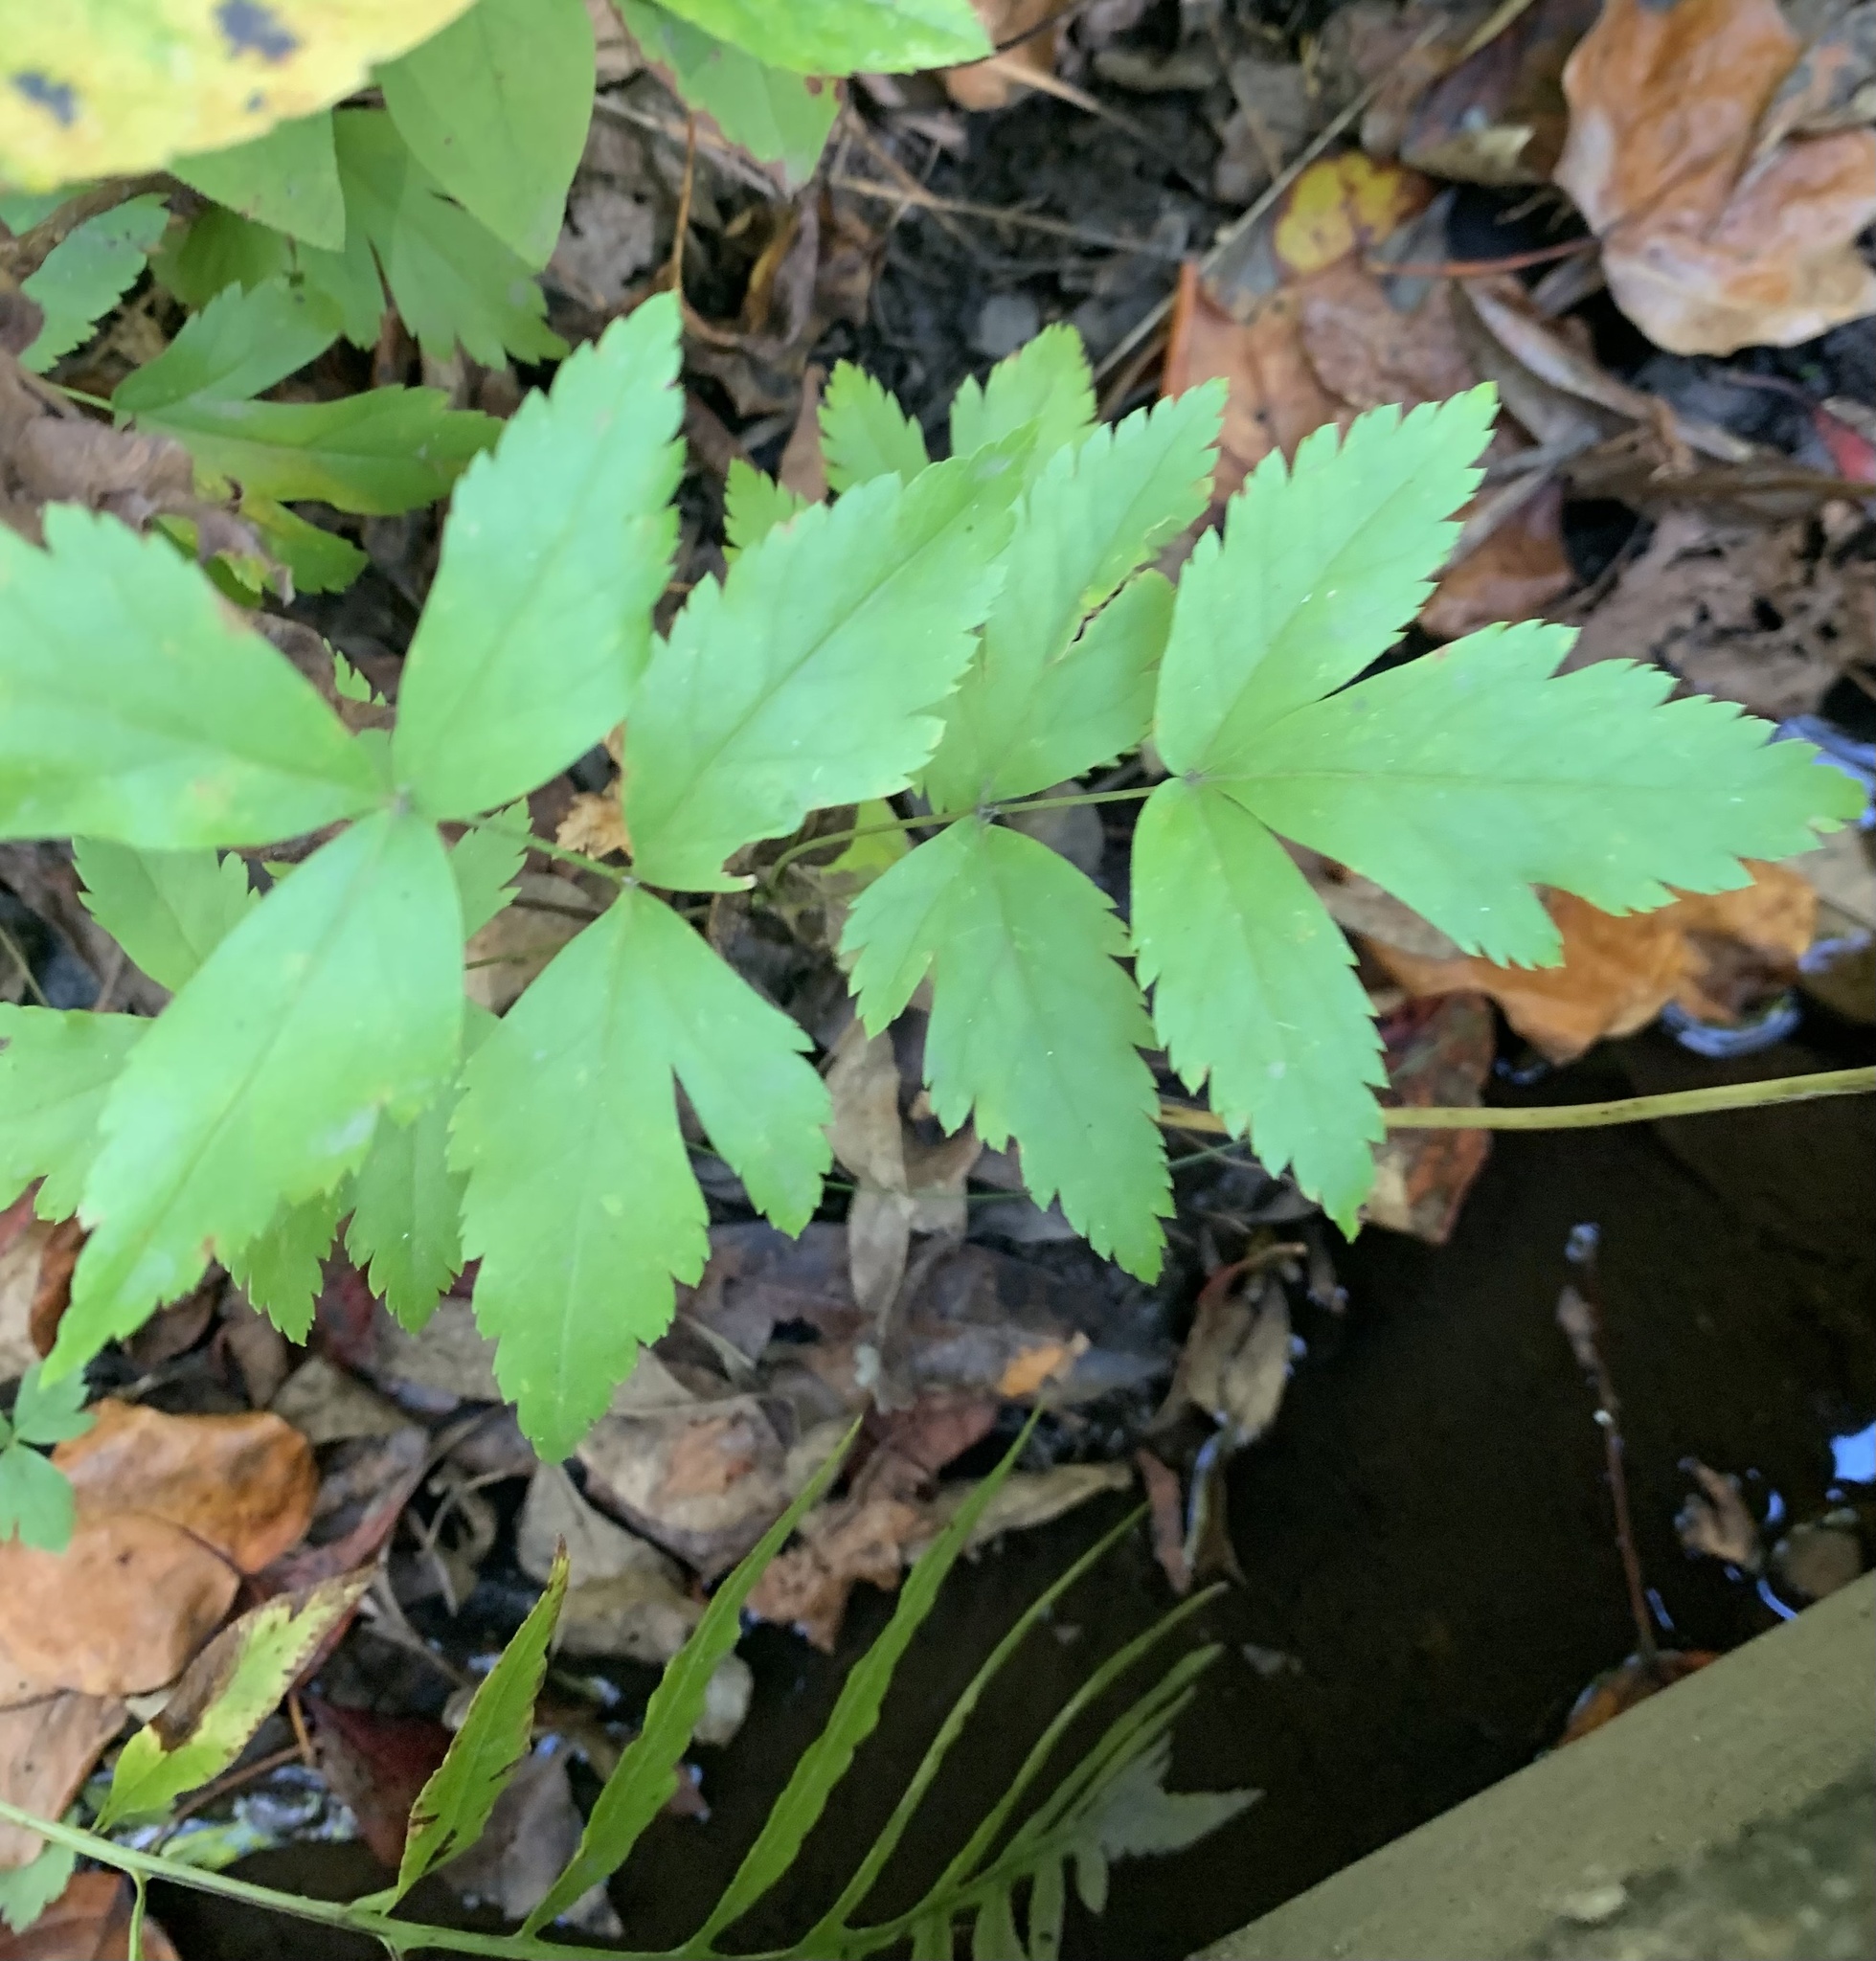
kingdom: Plantae
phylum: Tracheophyta
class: Magnoliopsida
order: Ranunculales
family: Ranunculaceae
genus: Xanthorhiza
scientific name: Xanthorhiza simplicissima
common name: Yellowroot
